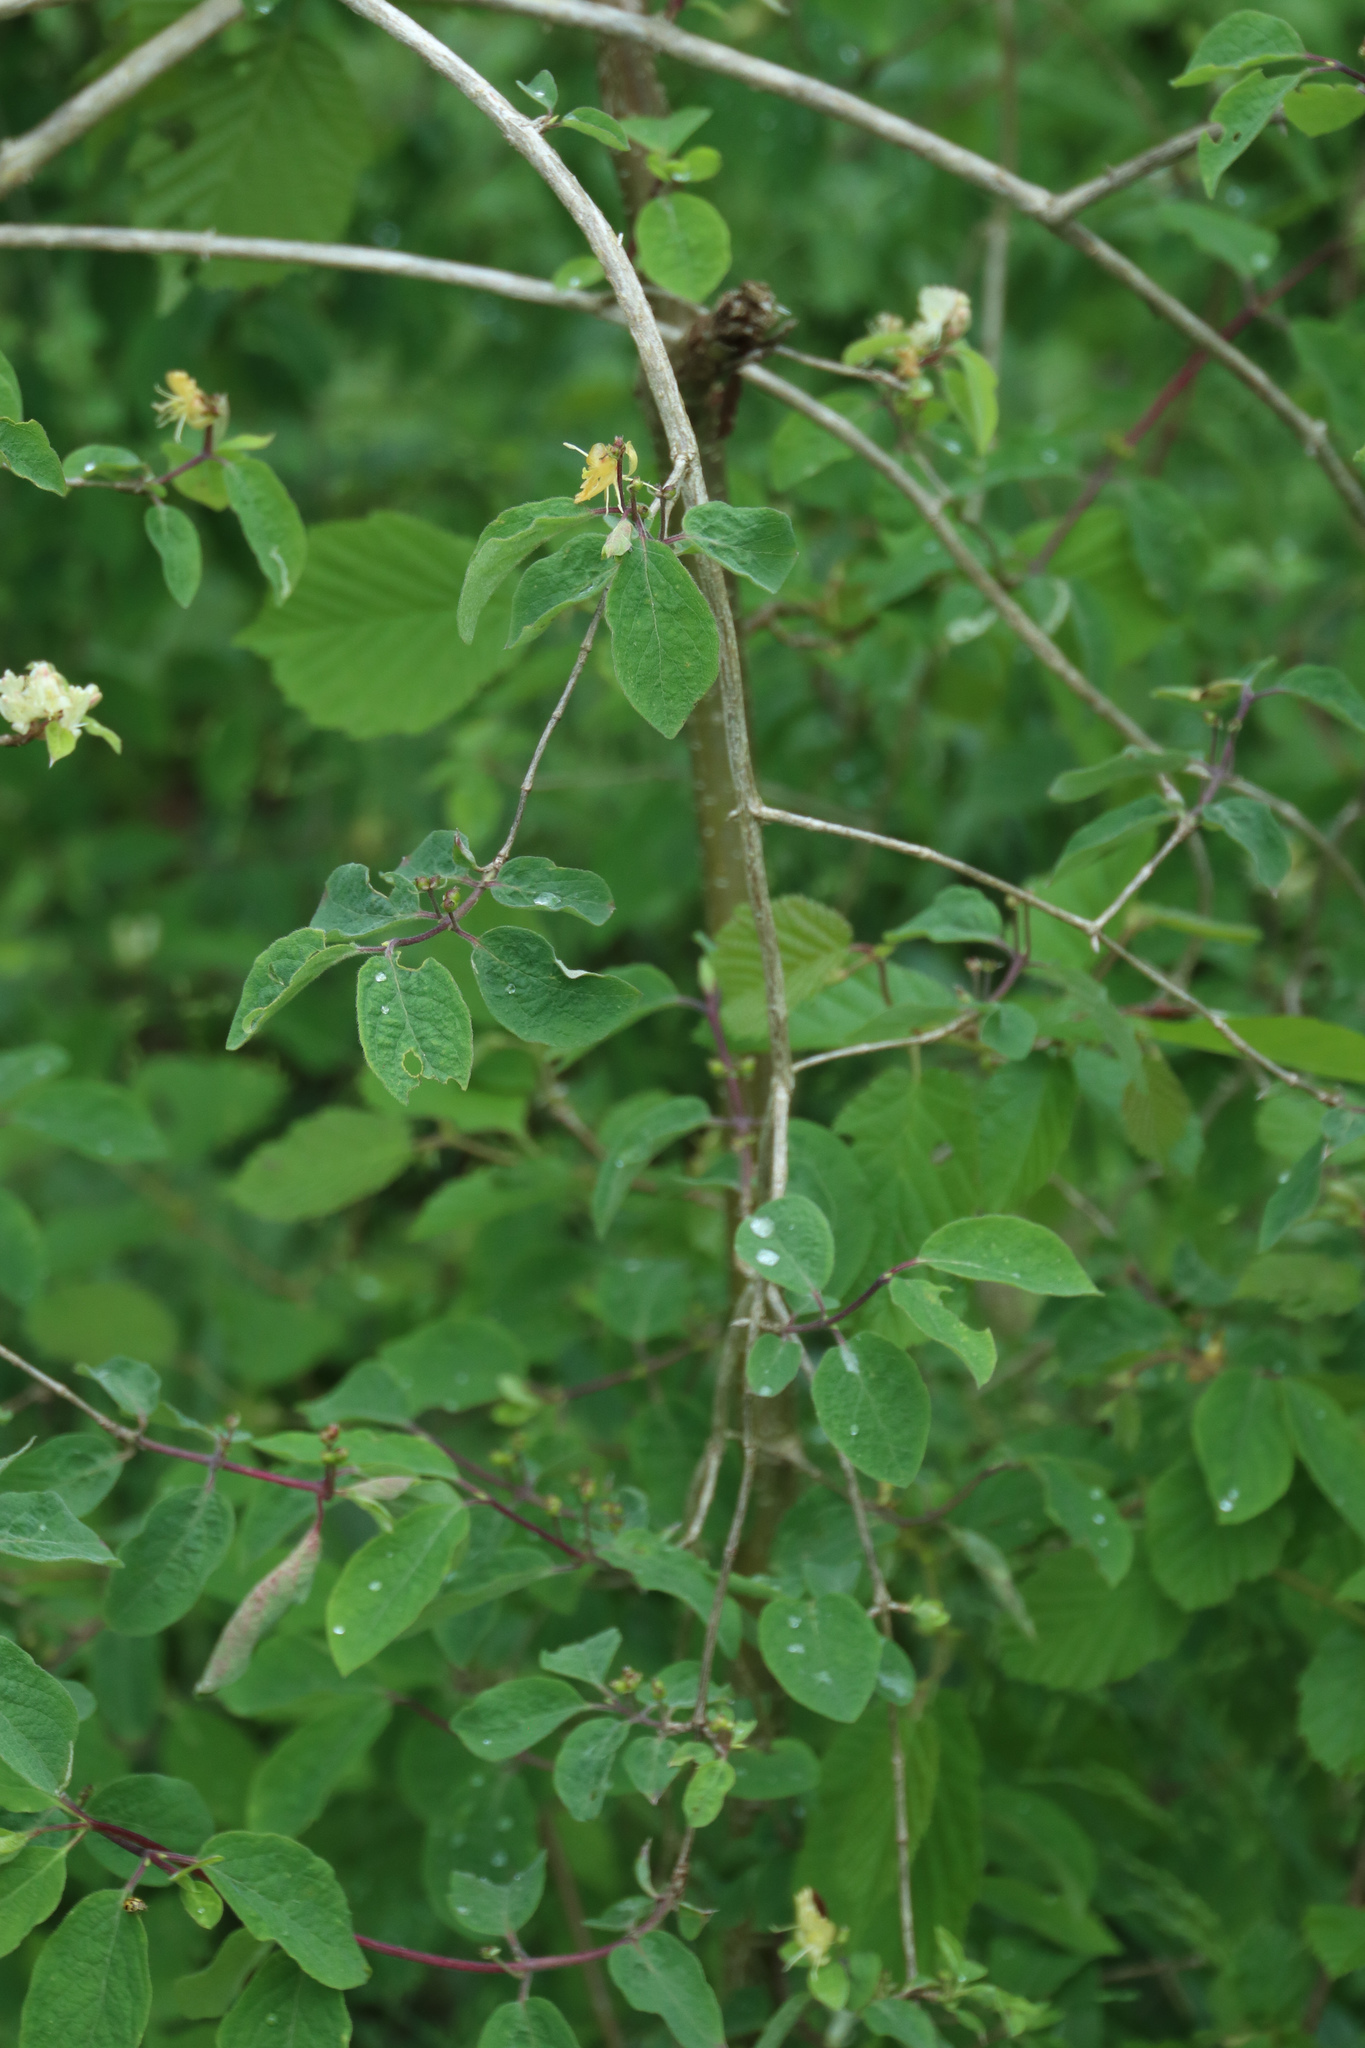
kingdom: Plantae
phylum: Tracheophyta
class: Magnoliopsida
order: Dipsacales
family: Caprifoliaceae
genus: Lonicera
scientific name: Lonicera xylosteum
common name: Fly honeysuckle
